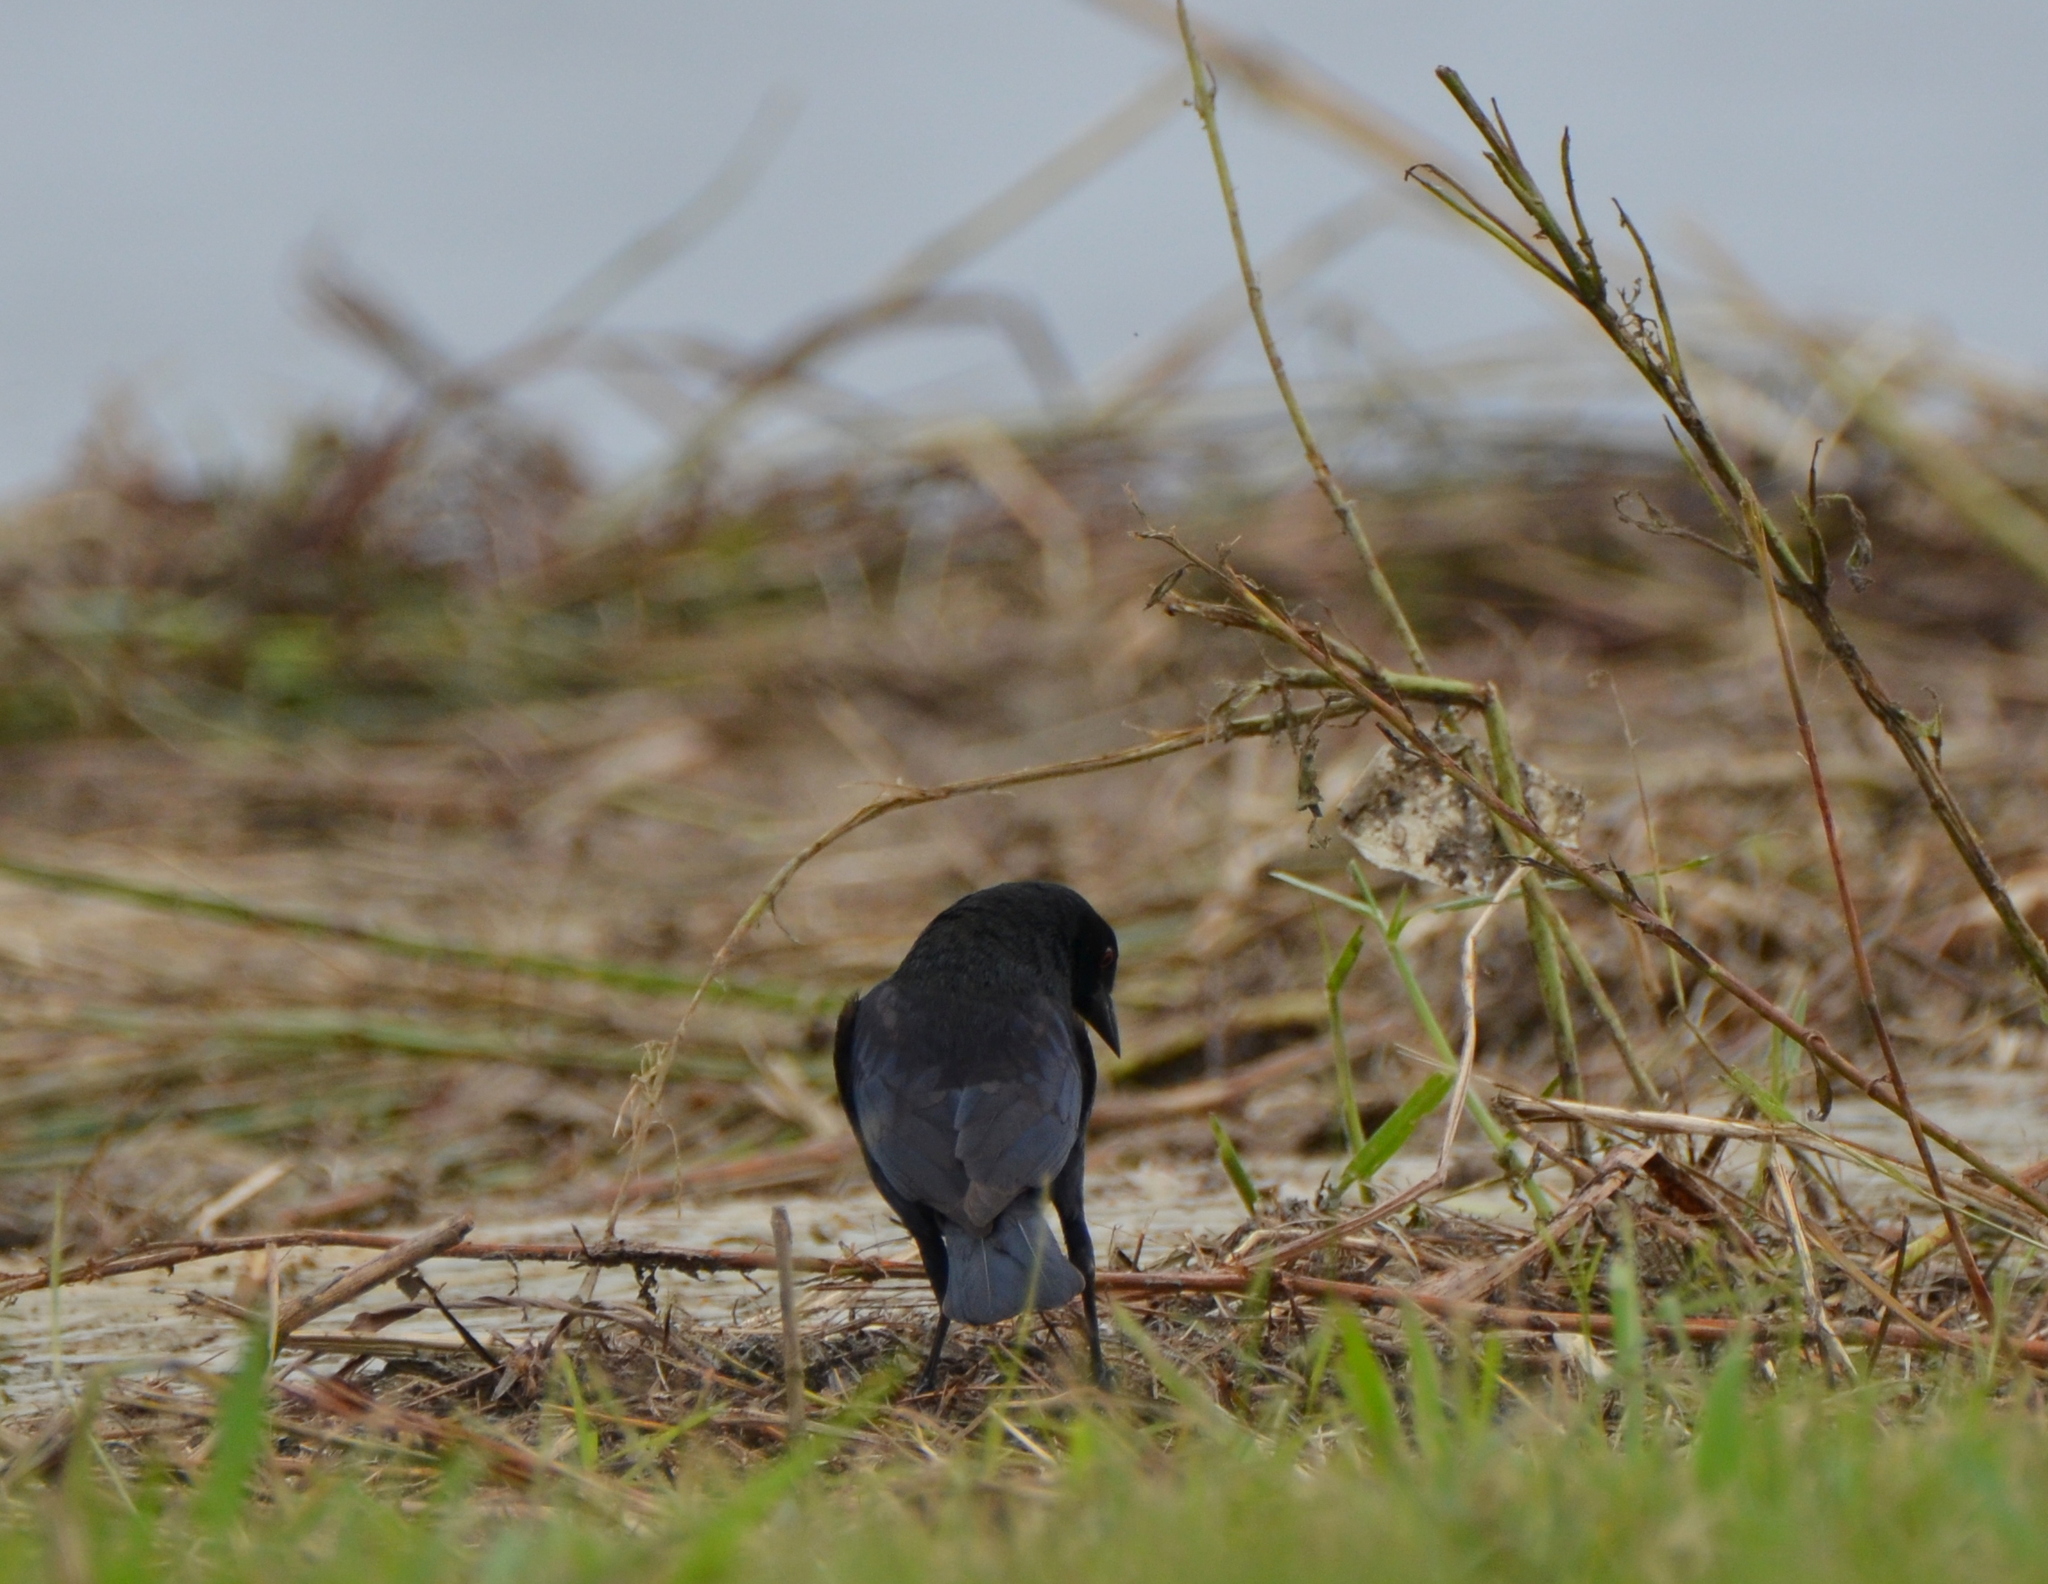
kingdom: Animalia
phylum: Chordata
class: Aves
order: Passeriformes
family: Icteridae
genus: Molothrus
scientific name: Molothrus aeneus
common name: Bronzed cowbird
